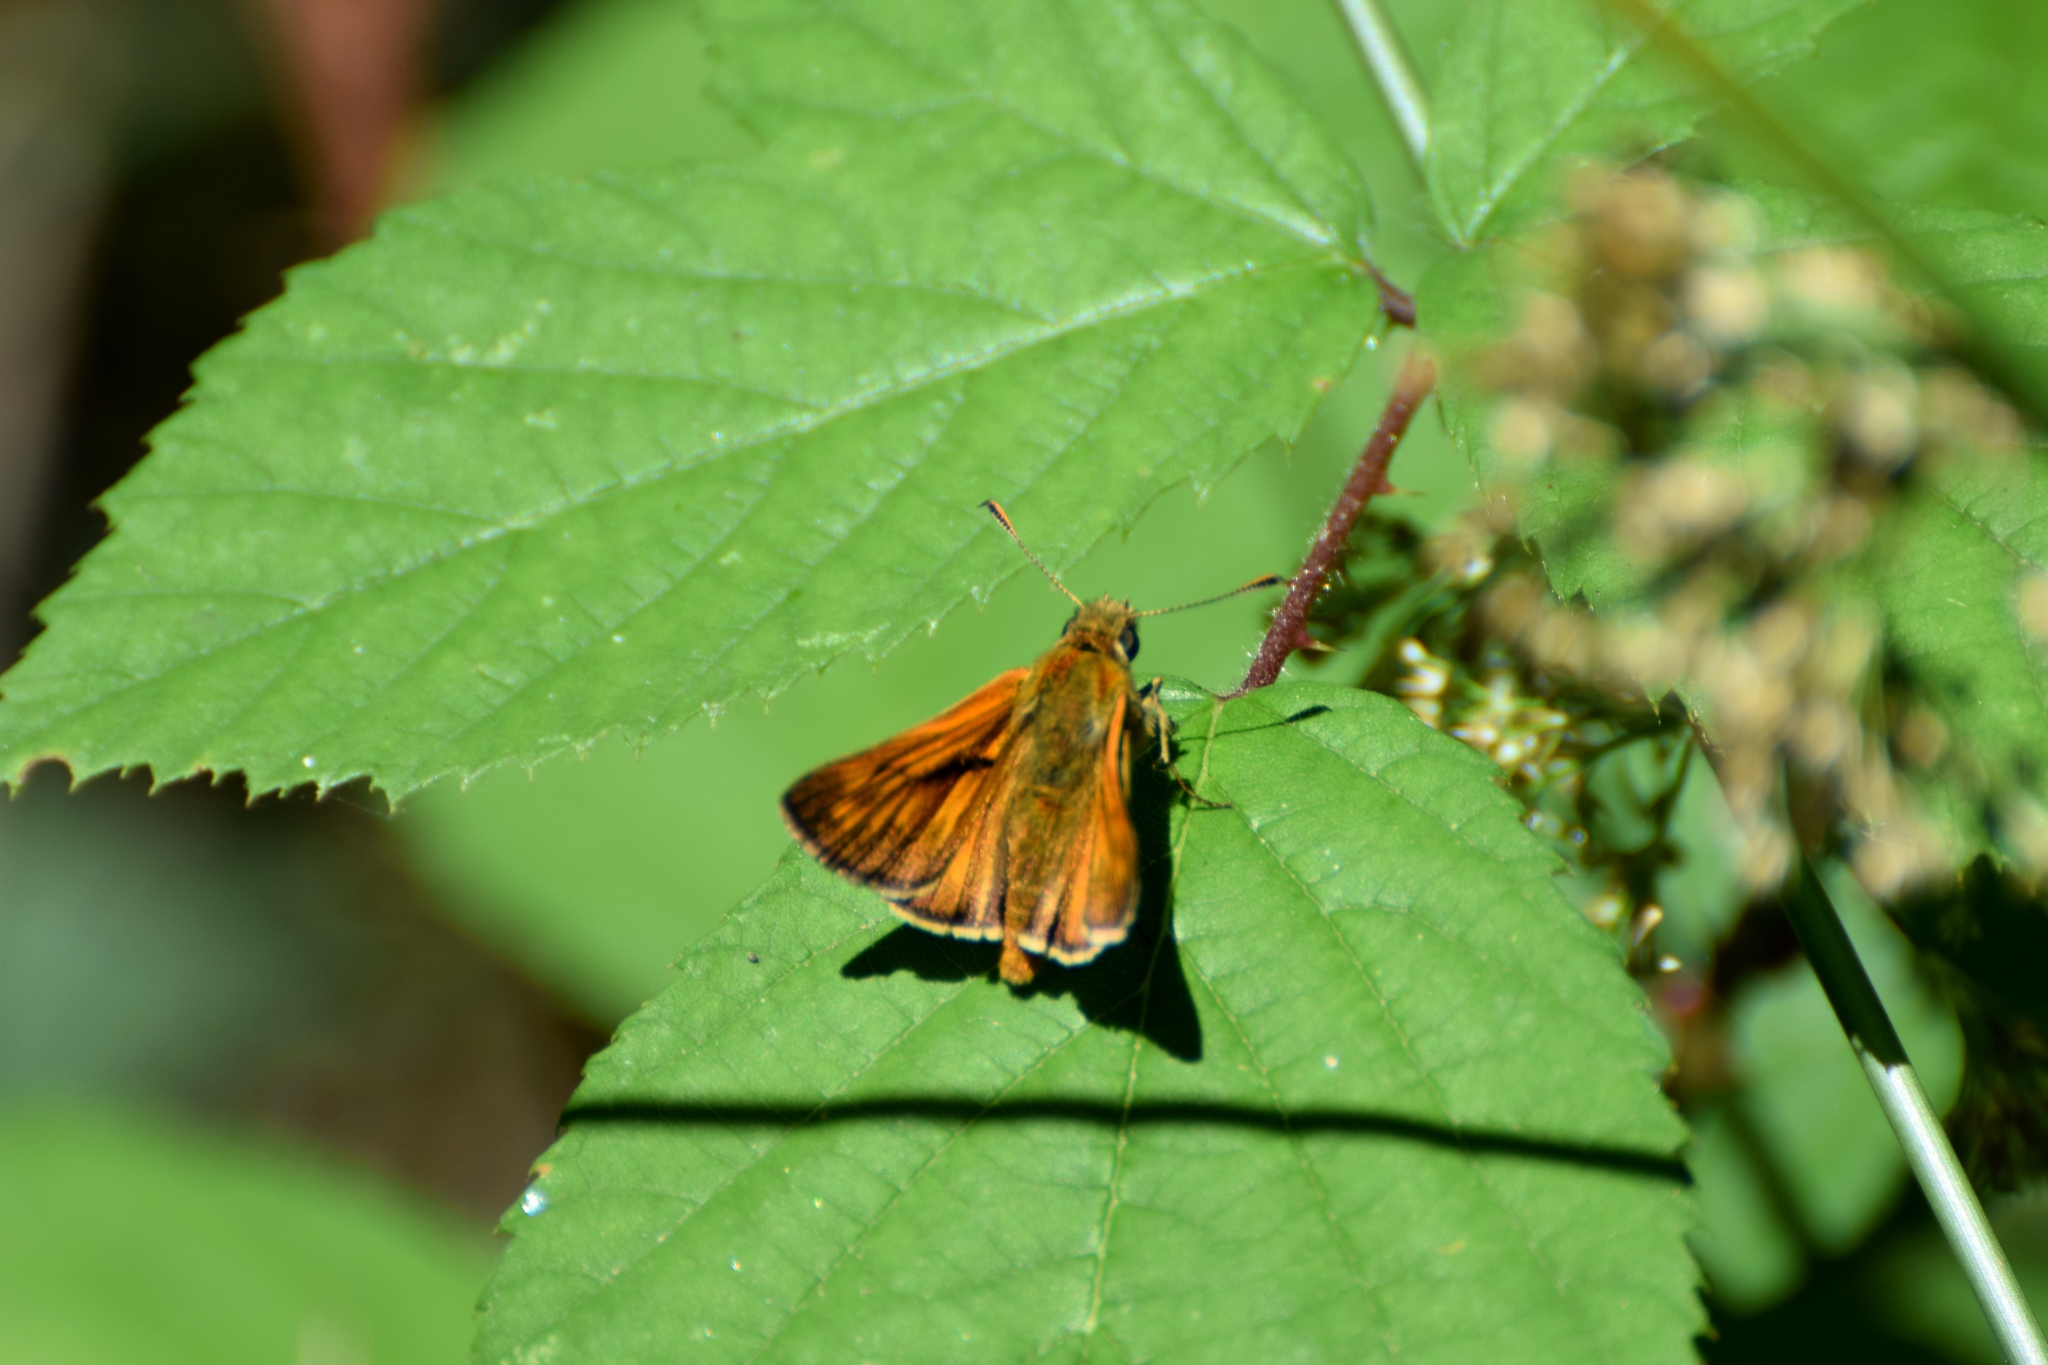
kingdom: Animalia
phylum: Arthropoda
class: Insecta
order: Lepidoptera
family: Hesperiidae
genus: Ochlodes
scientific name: Ochlodes venata
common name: Large skipper
